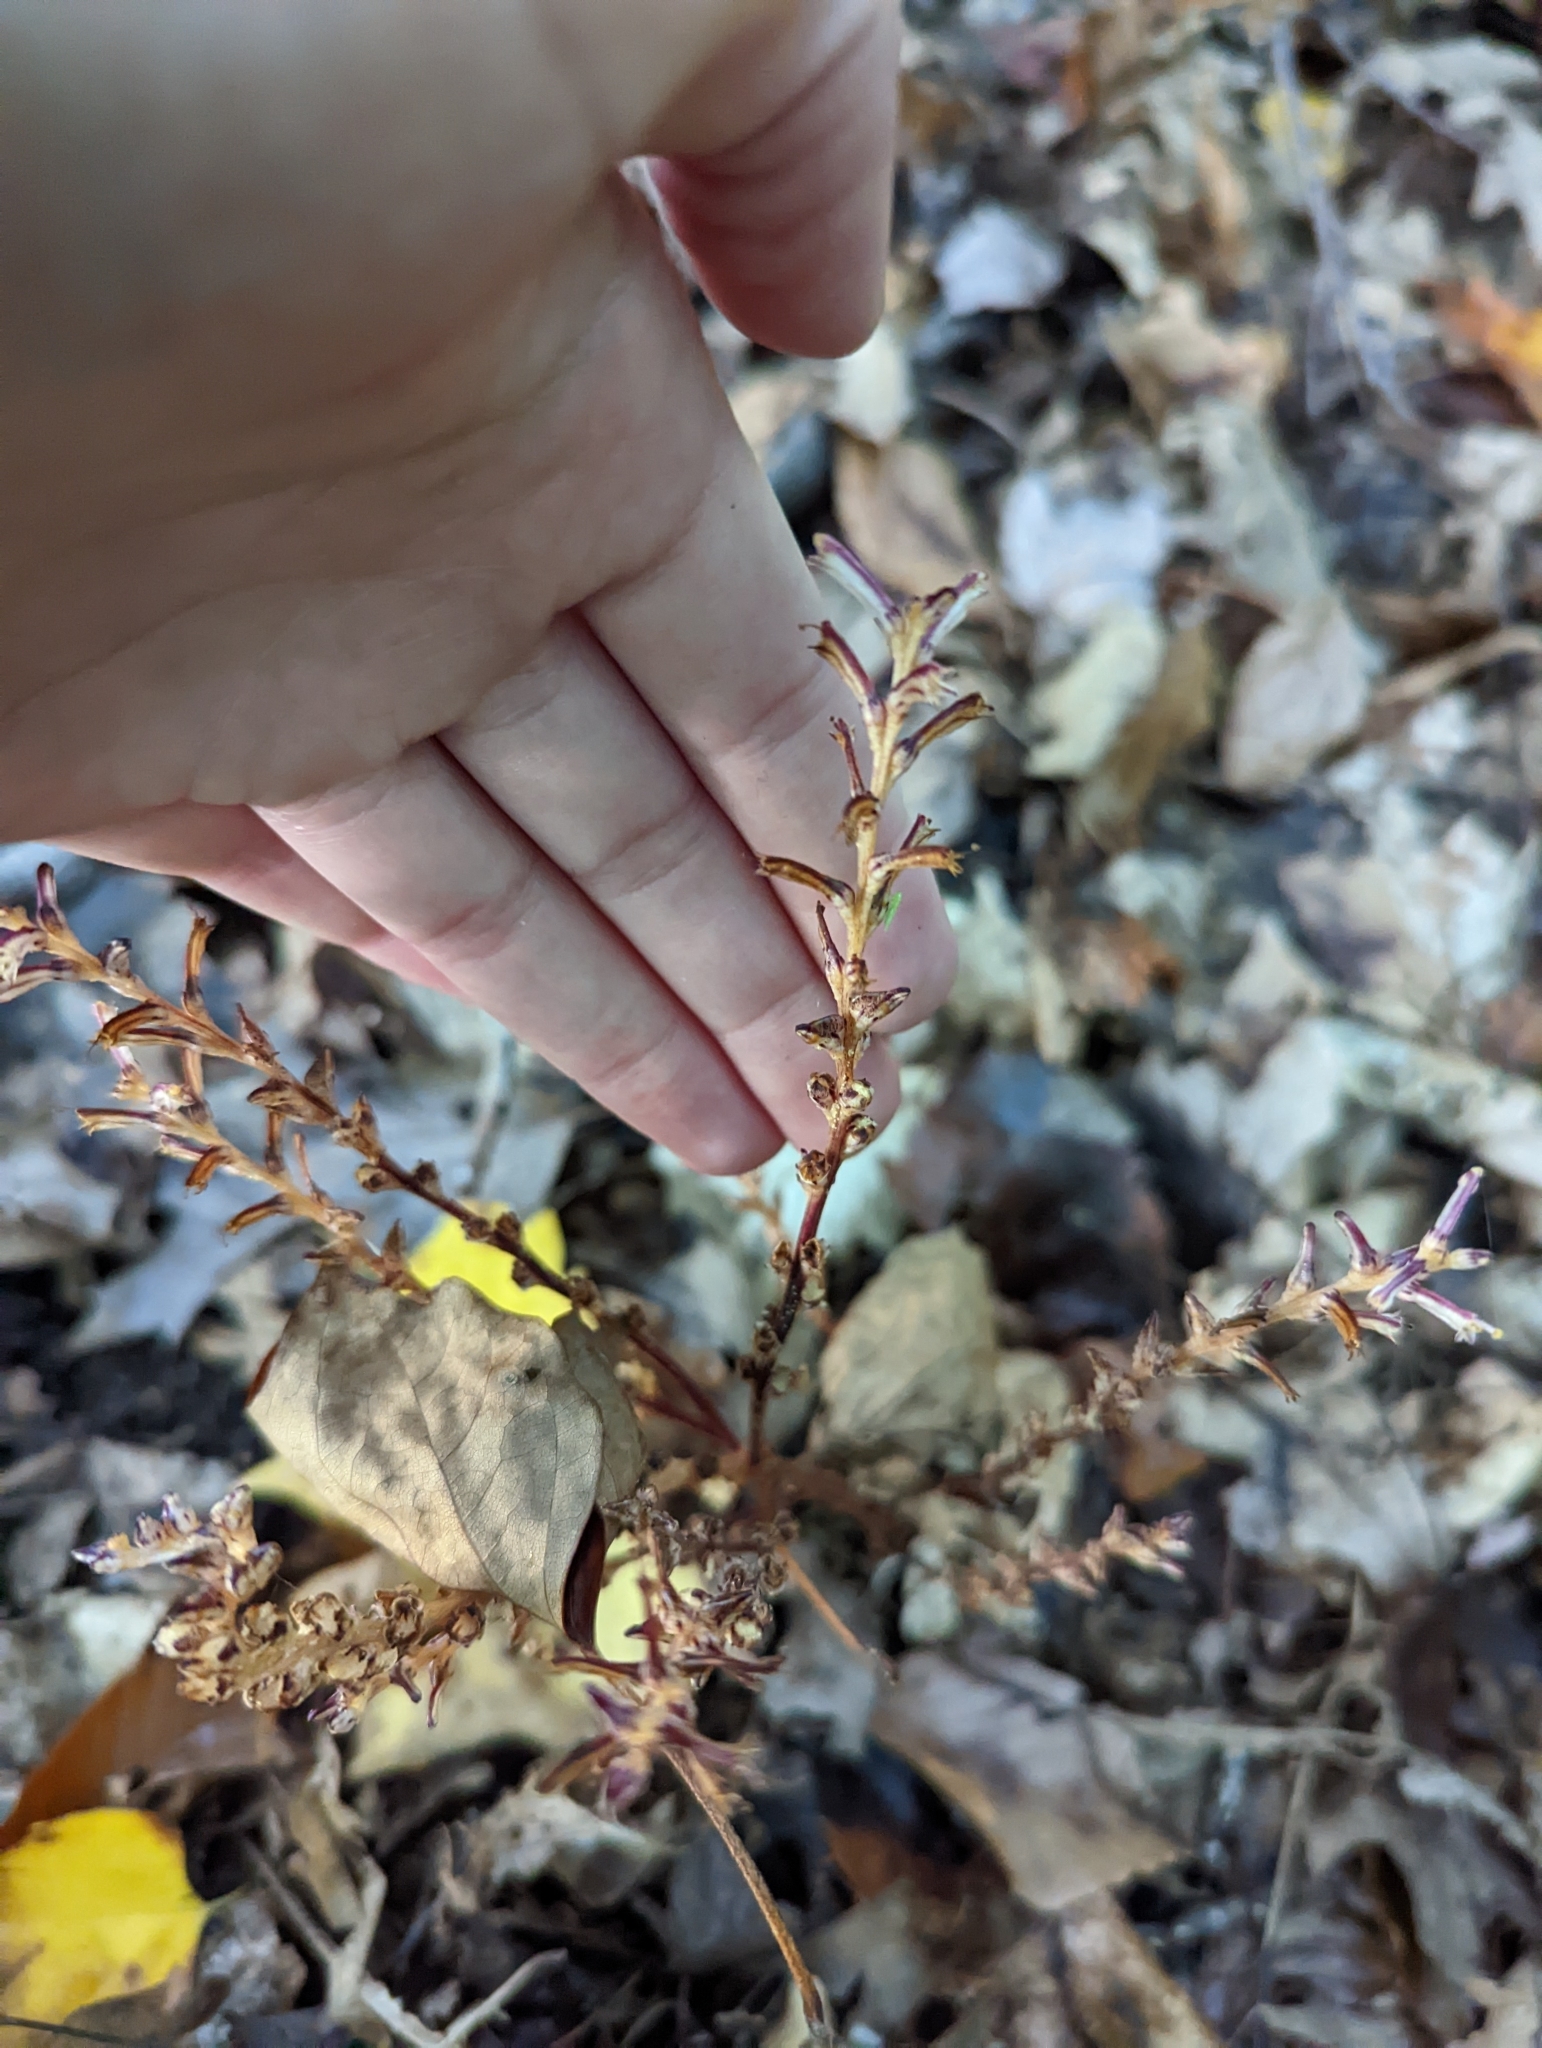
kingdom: Plantae
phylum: Tracheophyta
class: Magnoliopsida
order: Lamiales
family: Orobanchaceae
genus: Epifagus
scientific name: Epifagus virginiana
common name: Beechdrops
